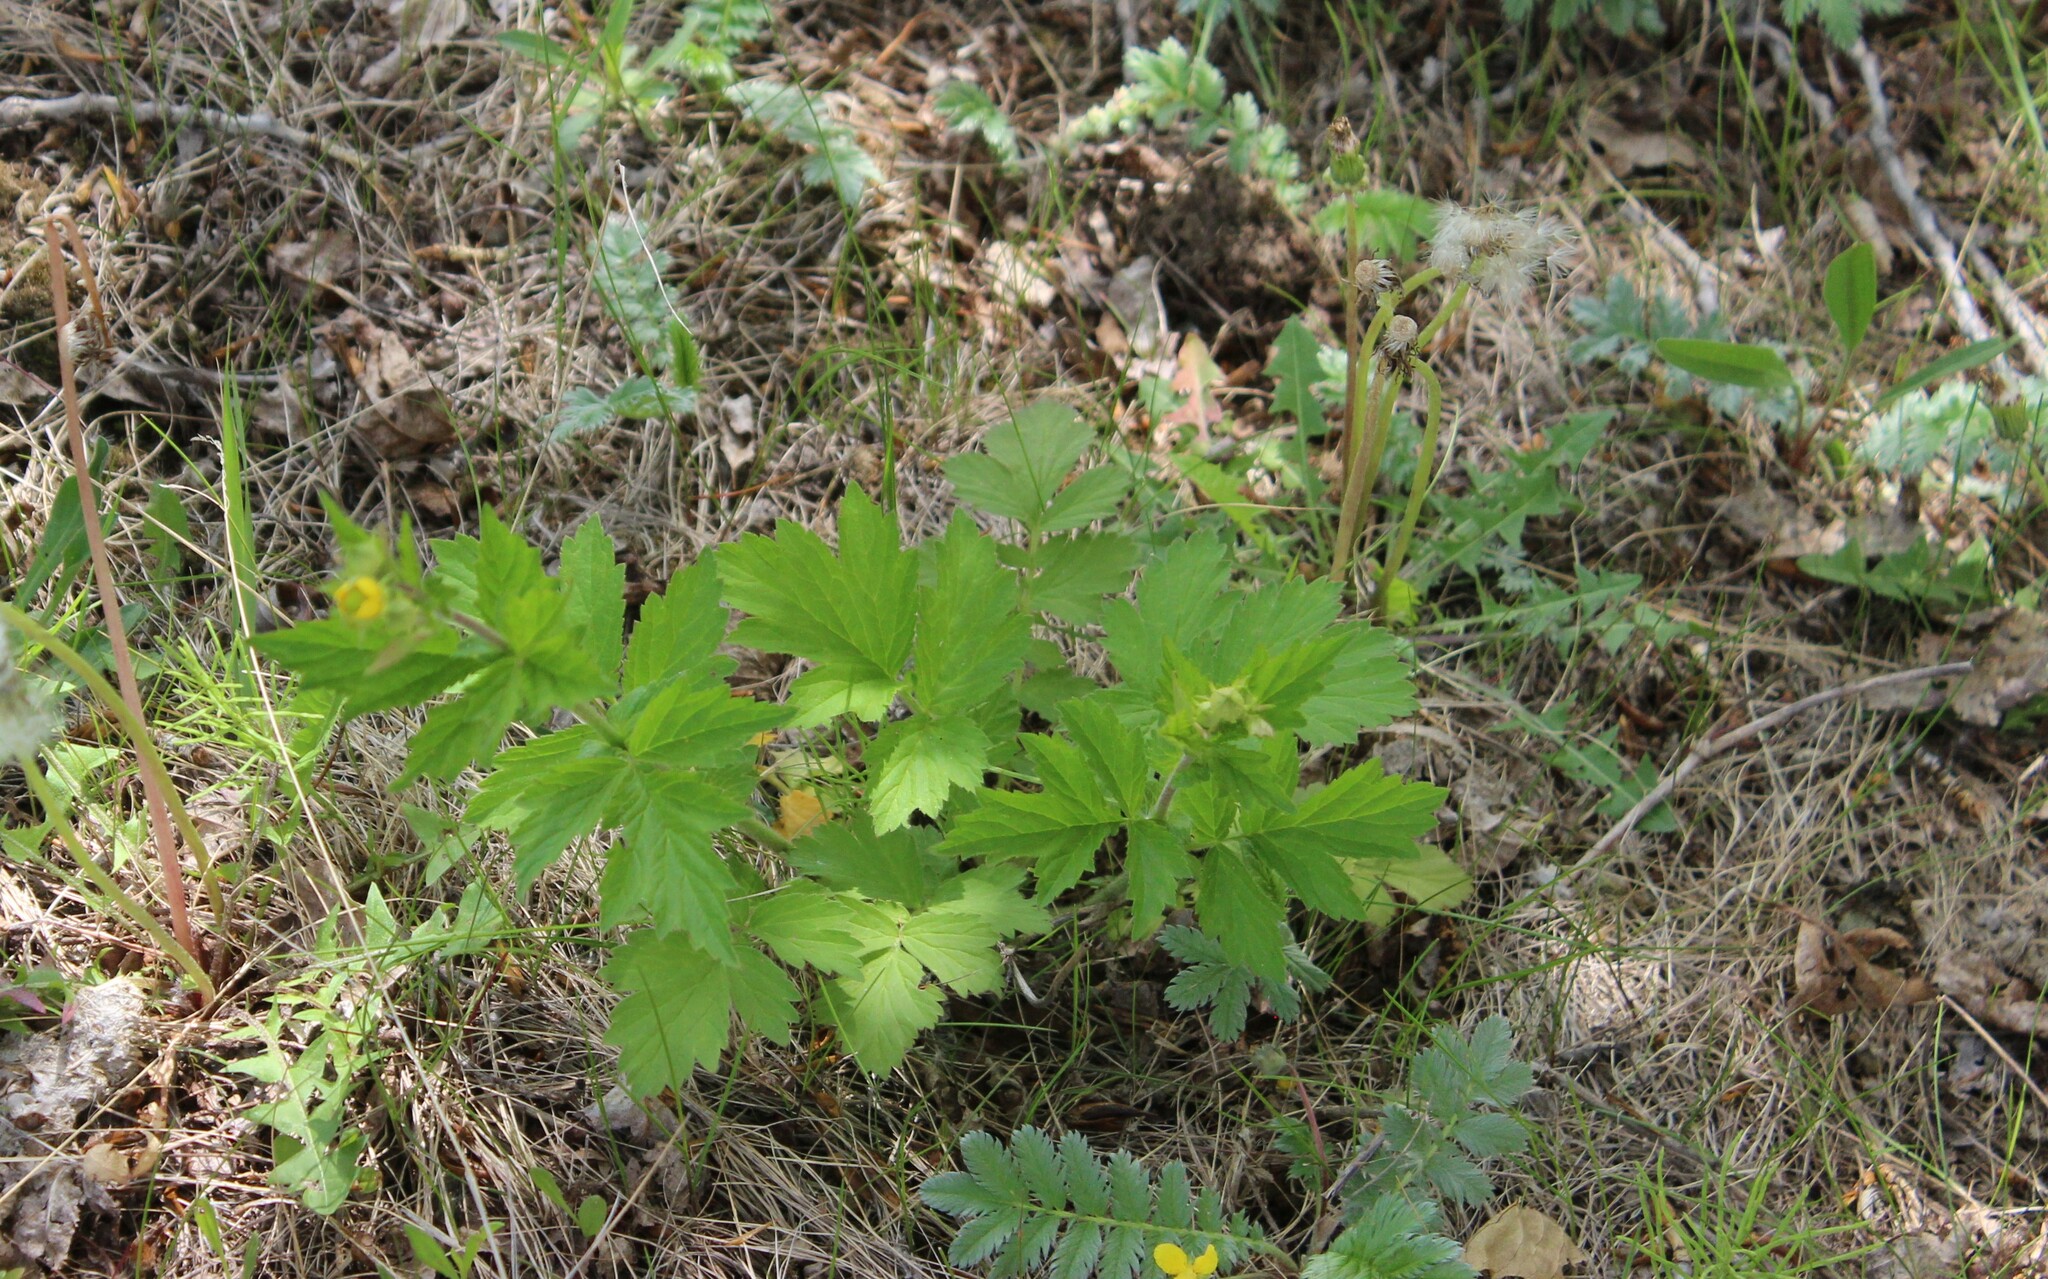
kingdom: Plantae
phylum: Tracheophyta
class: Magnoliopsida
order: Rosales
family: Rosaceae
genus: Geum
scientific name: Geum aleppicum
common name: Yellow avens
